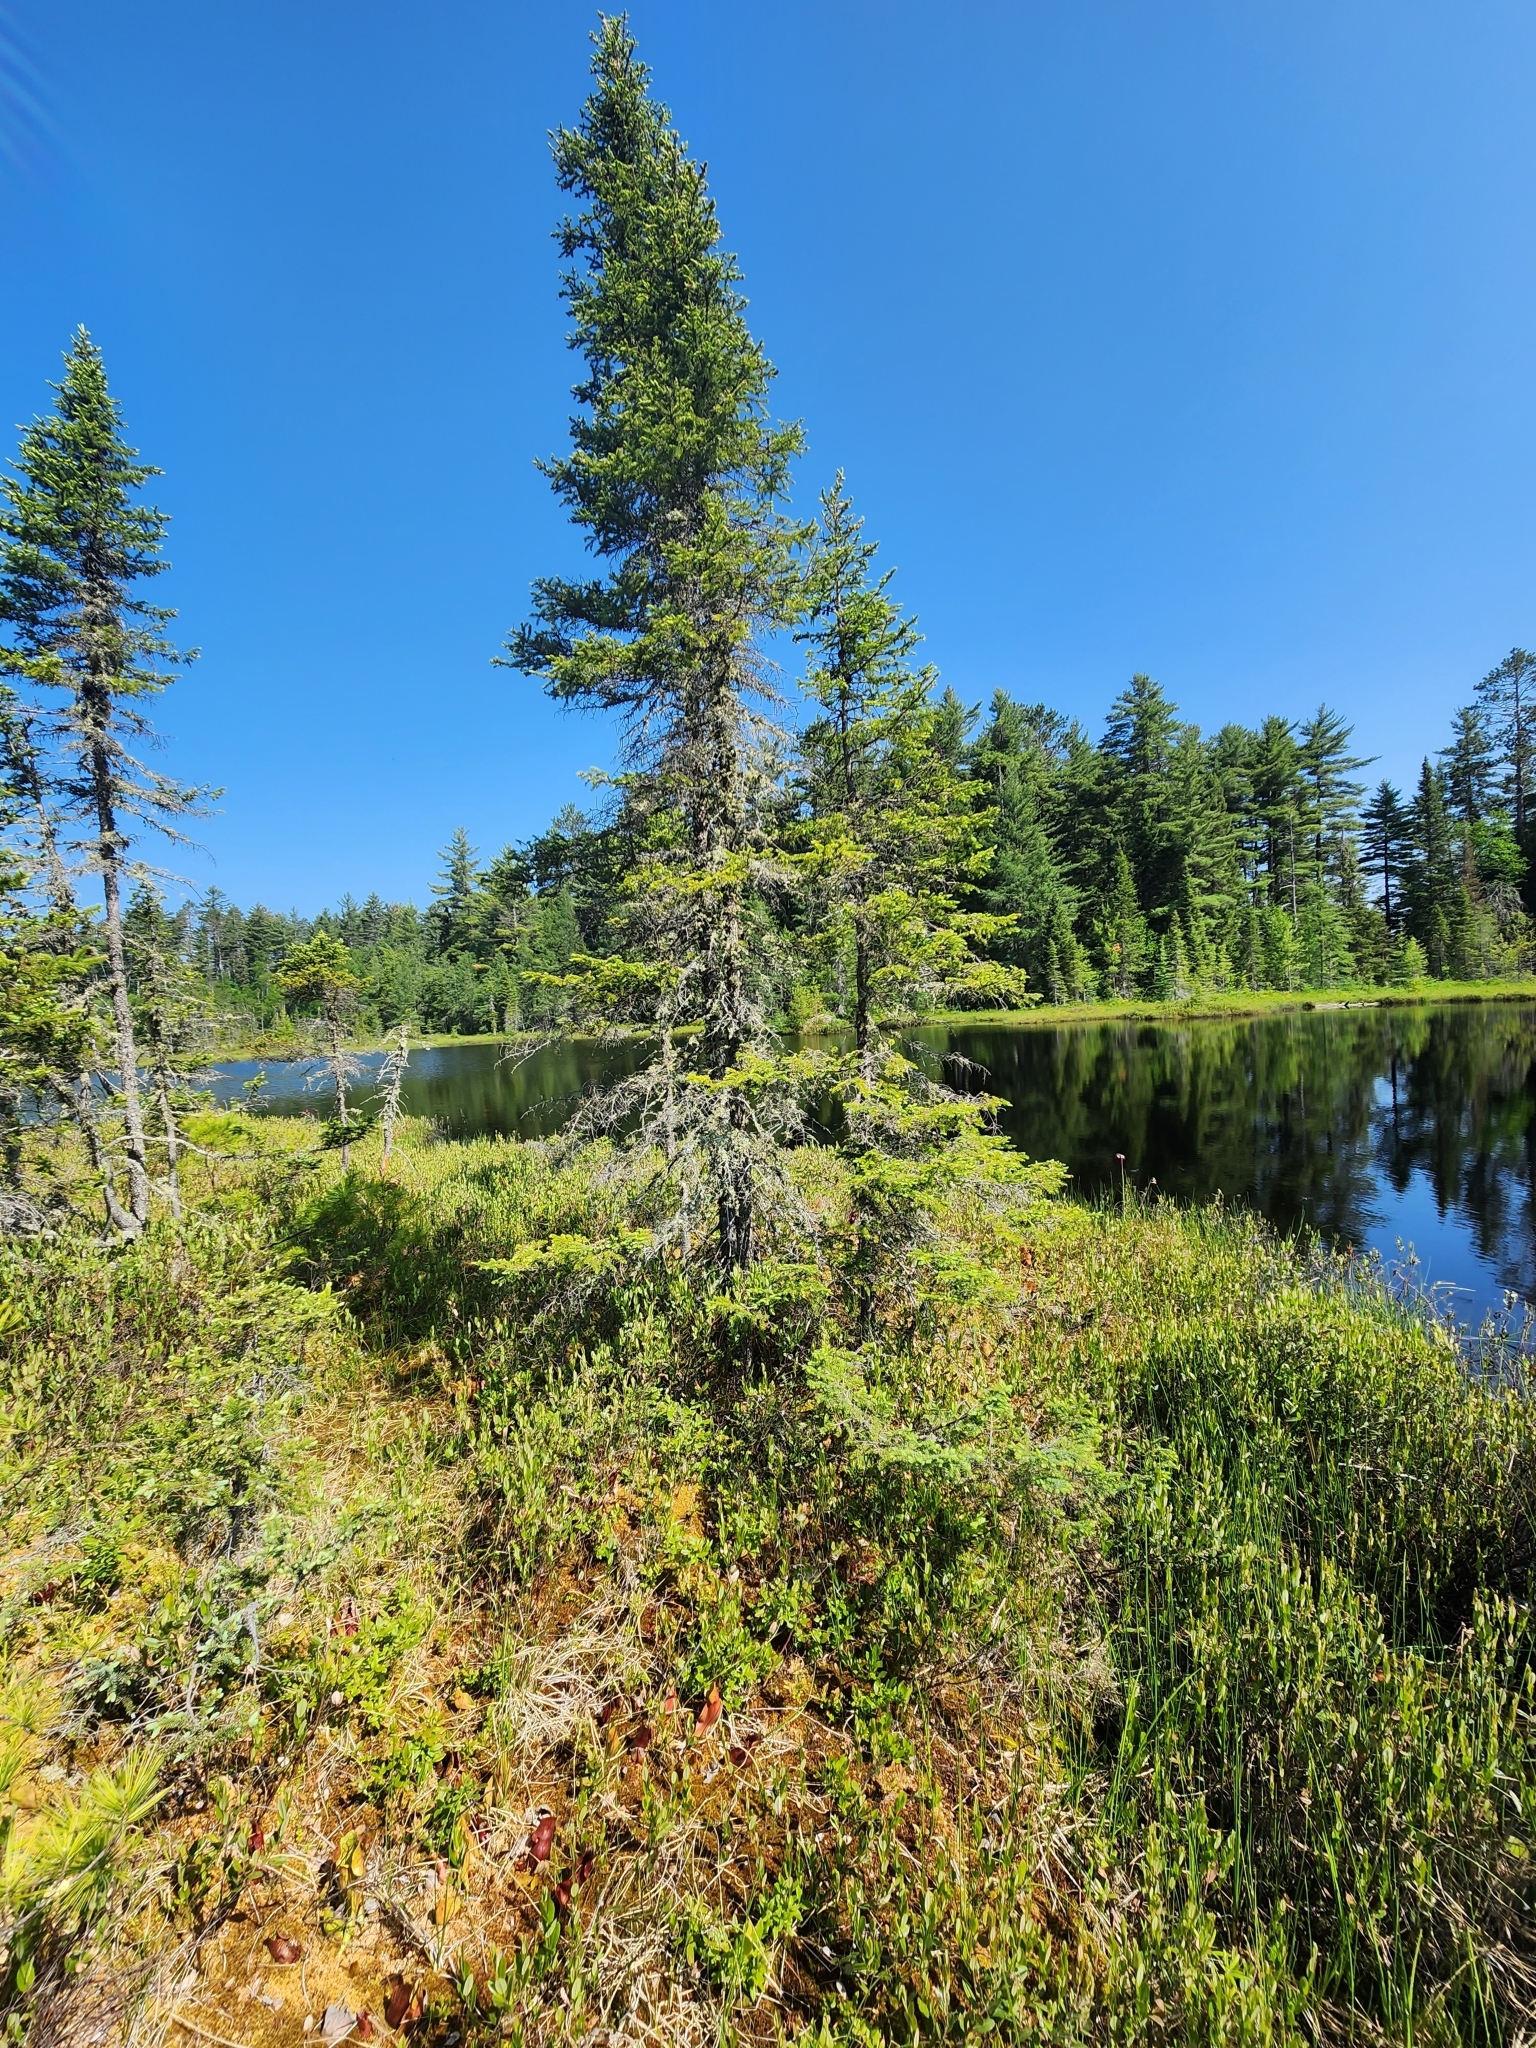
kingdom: Plantae
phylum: Tracheophyta
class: Pinopsida
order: Pinales
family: Pinaceae
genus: Picea
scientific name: Picea mariana
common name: Black spruce
